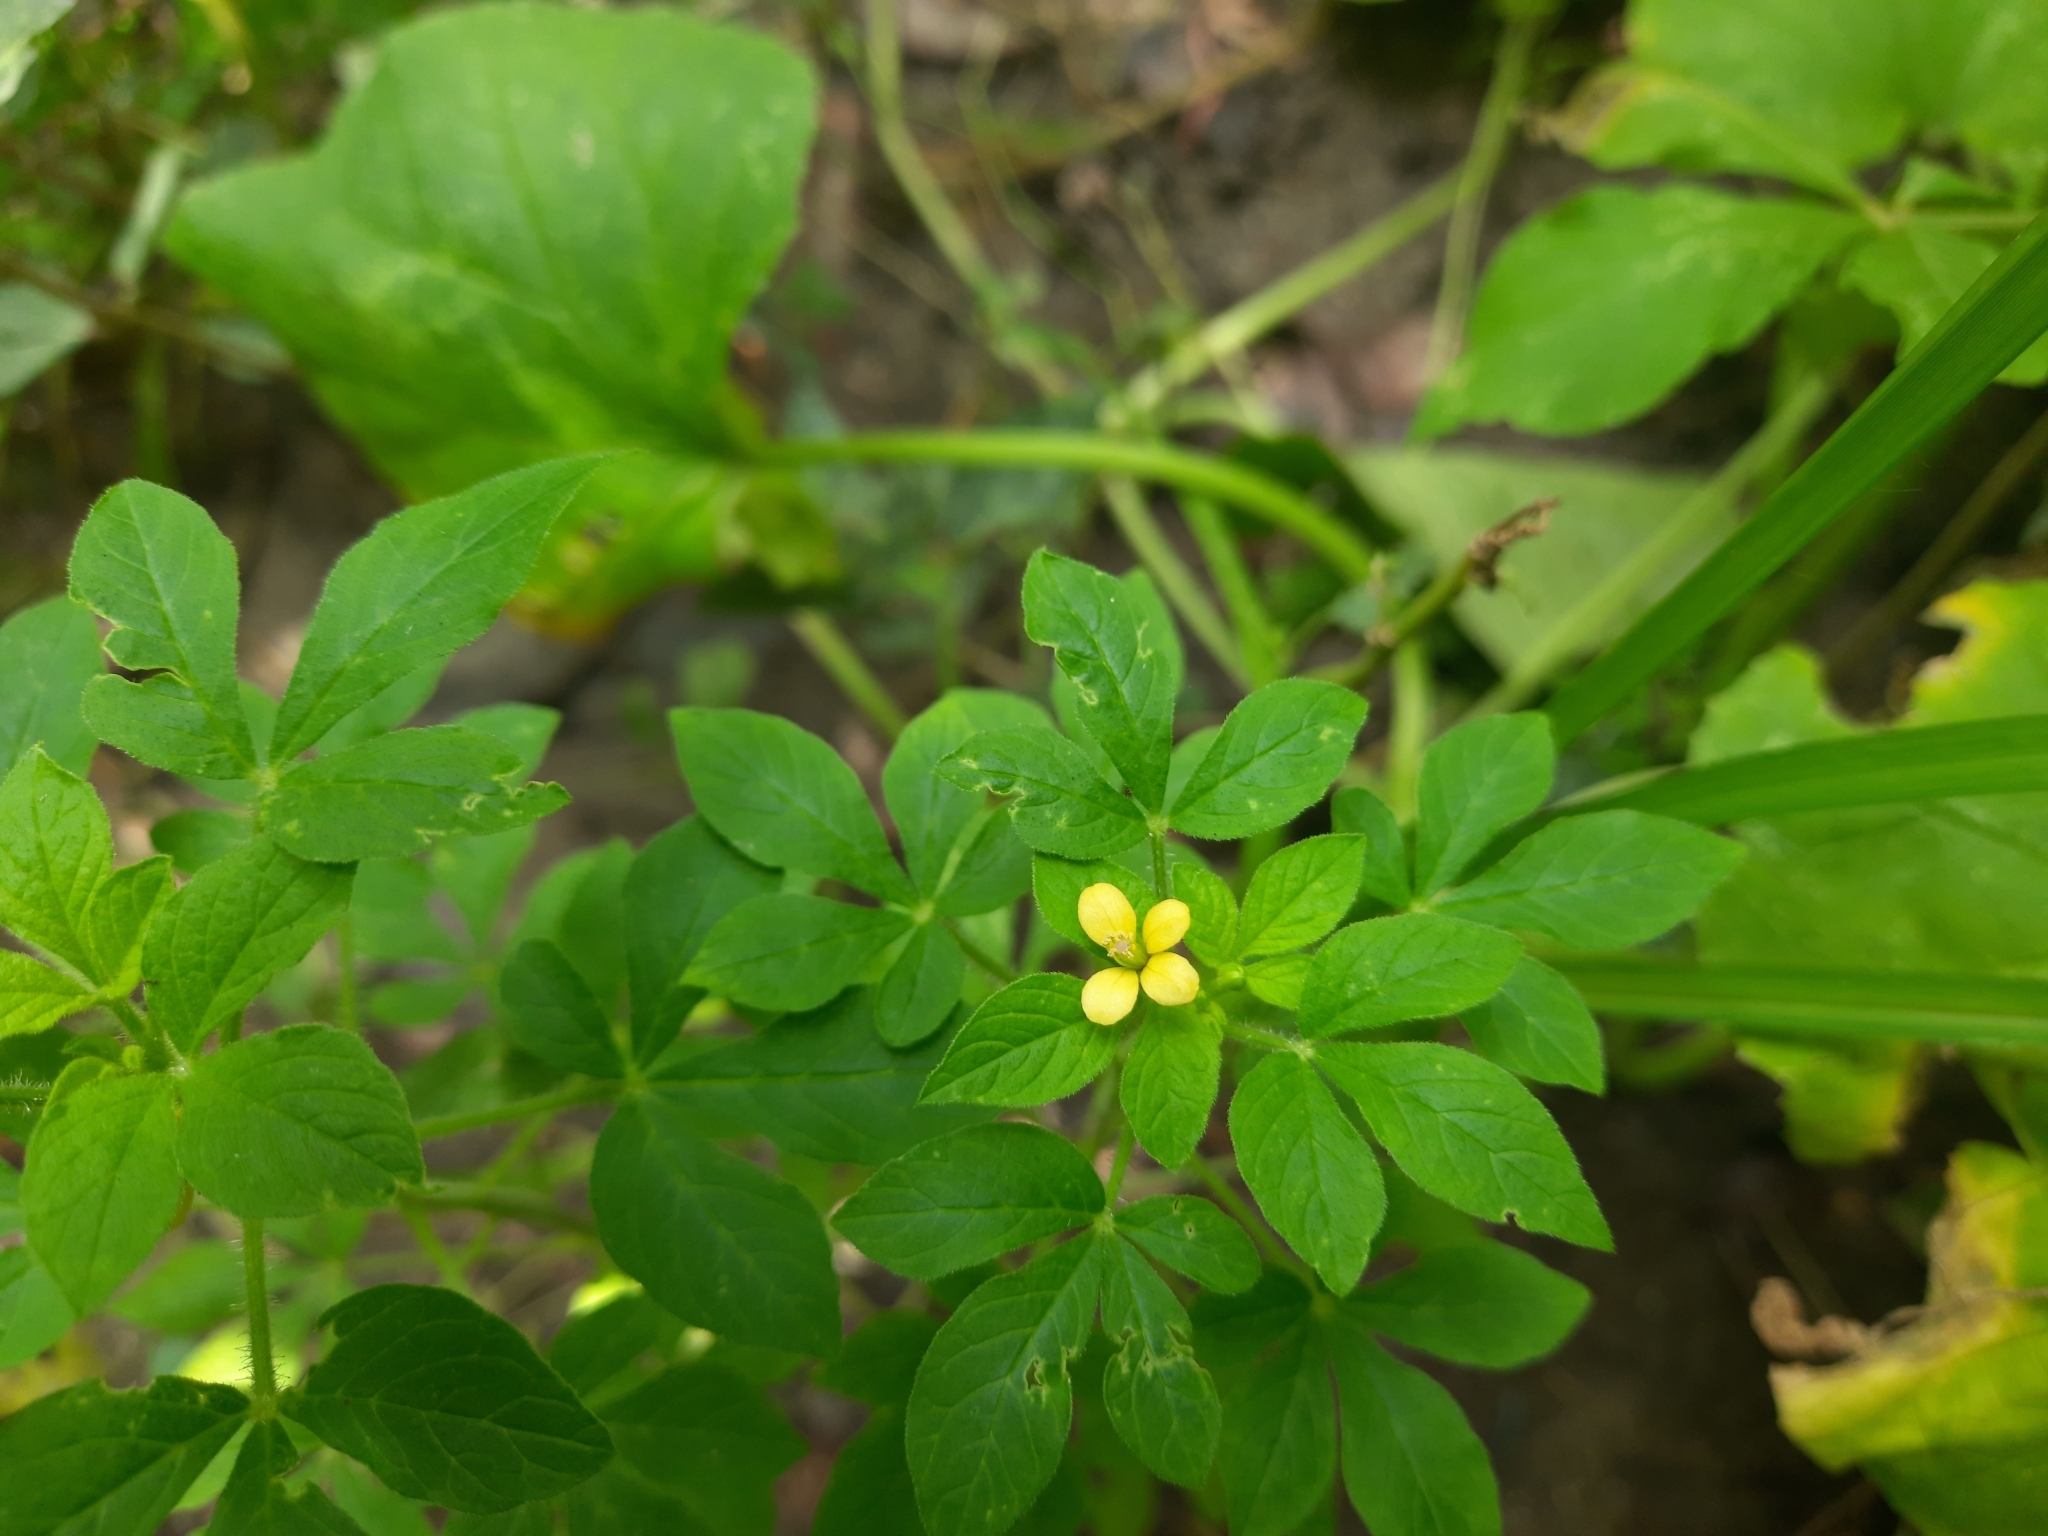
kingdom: Plantae
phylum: Tracheophyta
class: Magnoliopsida
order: Brassicales
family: Cleomaceae
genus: Arivela
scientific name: Arivela viscosa
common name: Asian spiderflower
